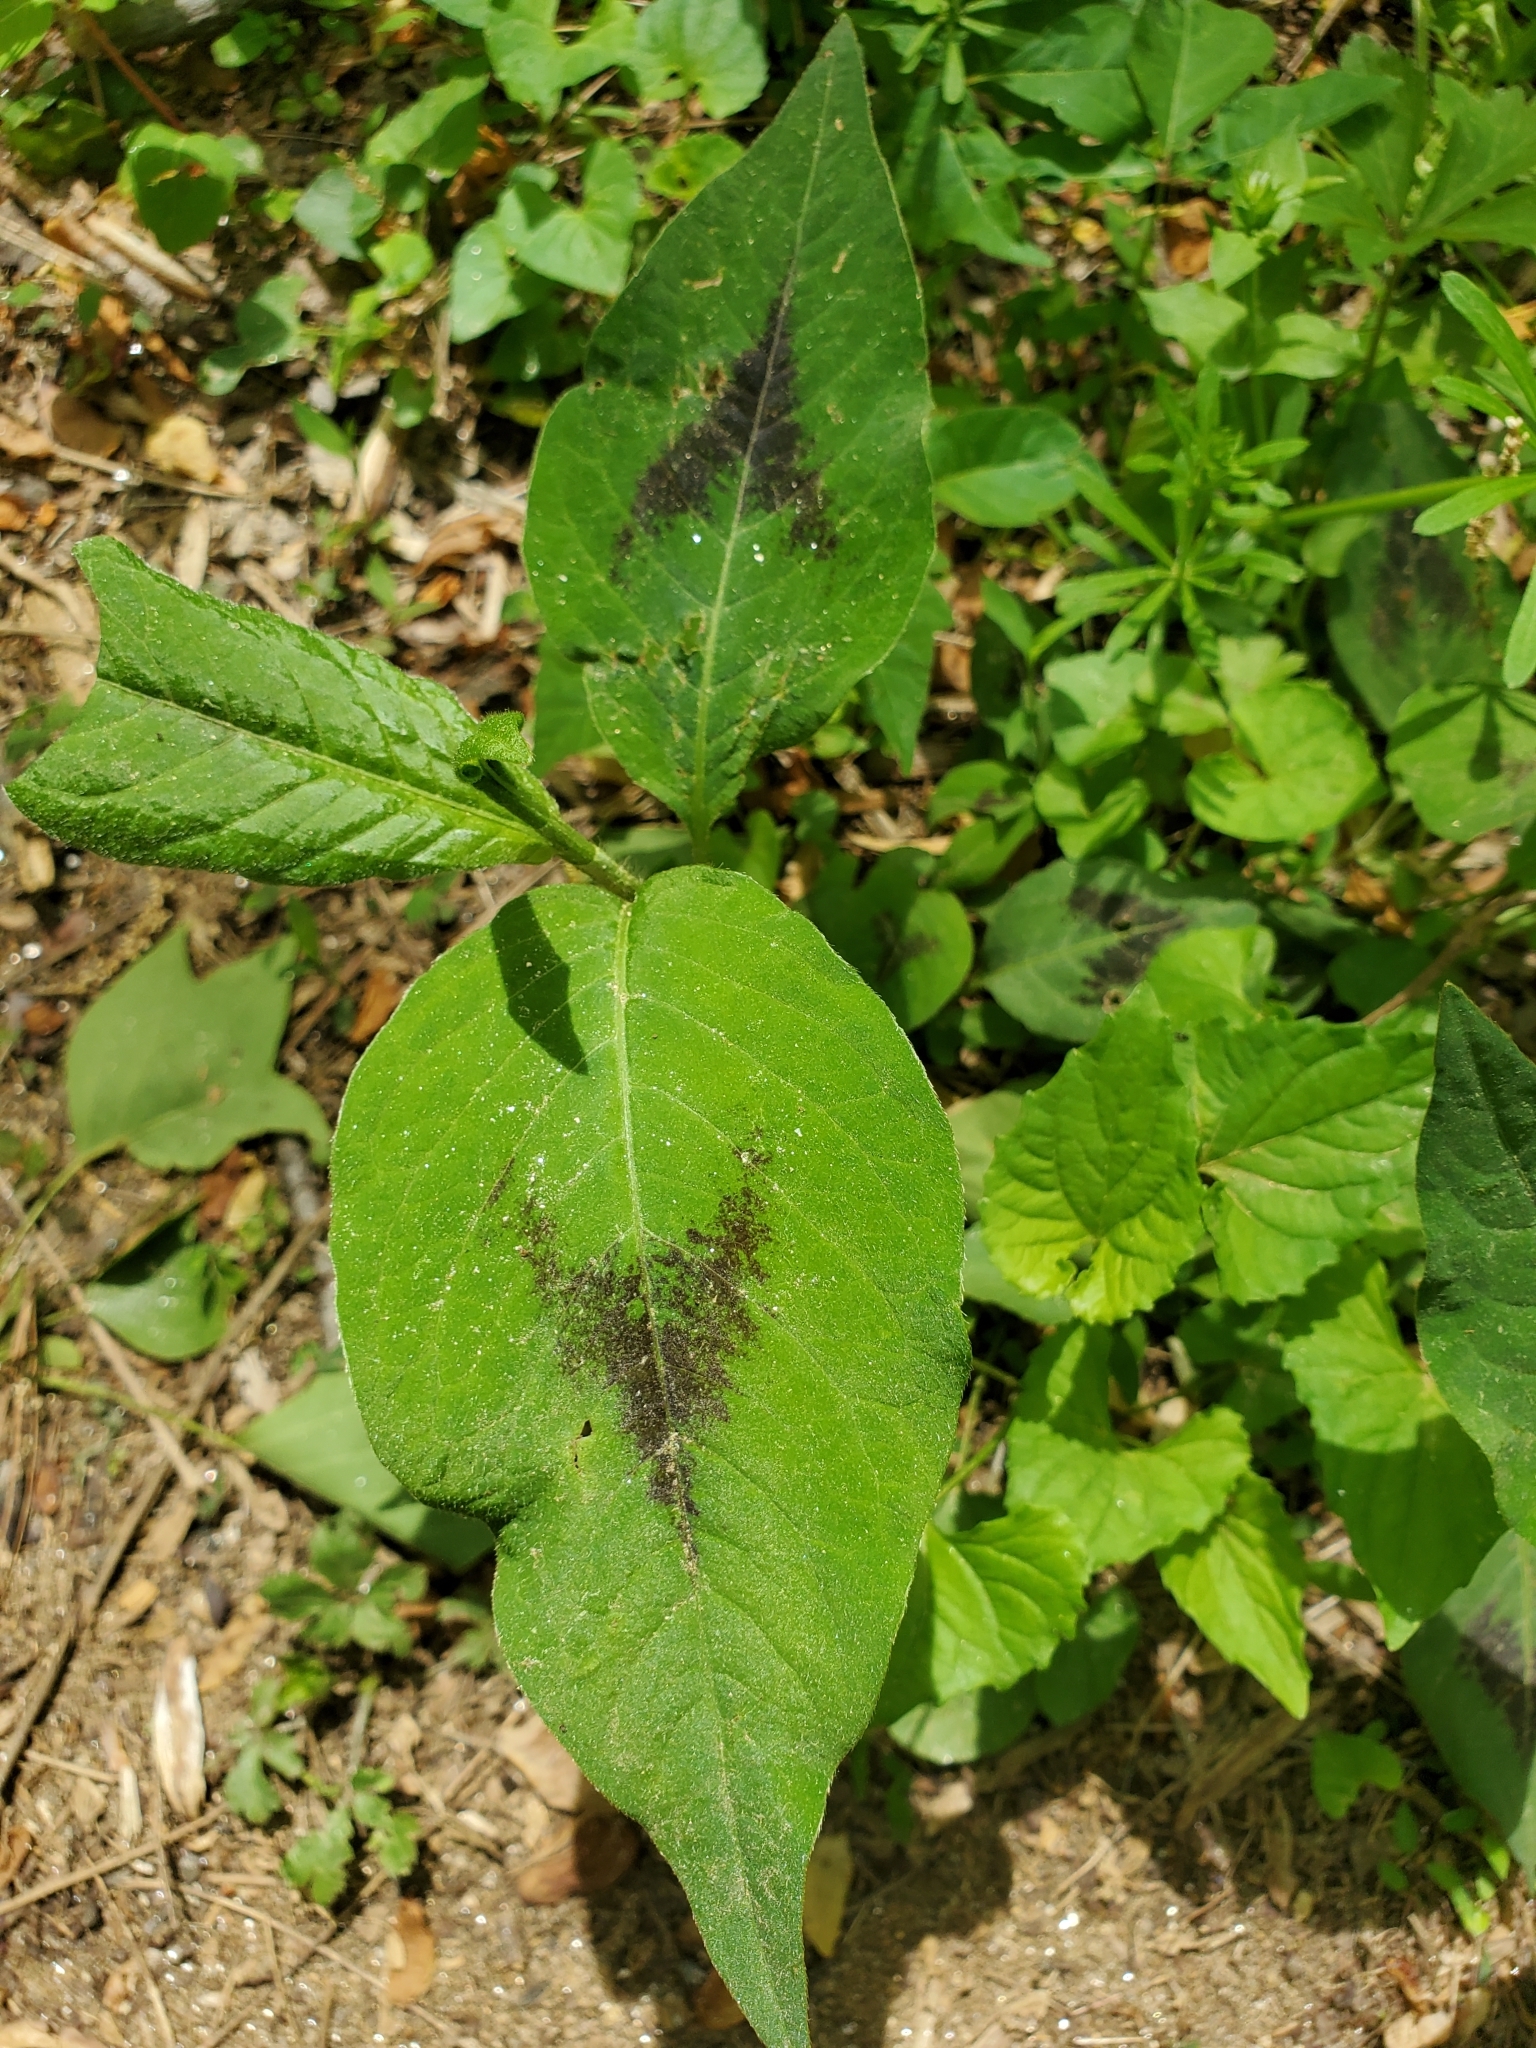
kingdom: Plantae
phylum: Tracheophyta
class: Magnoliopsida
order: Caryophyllales
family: Polygonaceae
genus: Persicaria
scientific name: Persicaria virginiana
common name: Jumpseed
